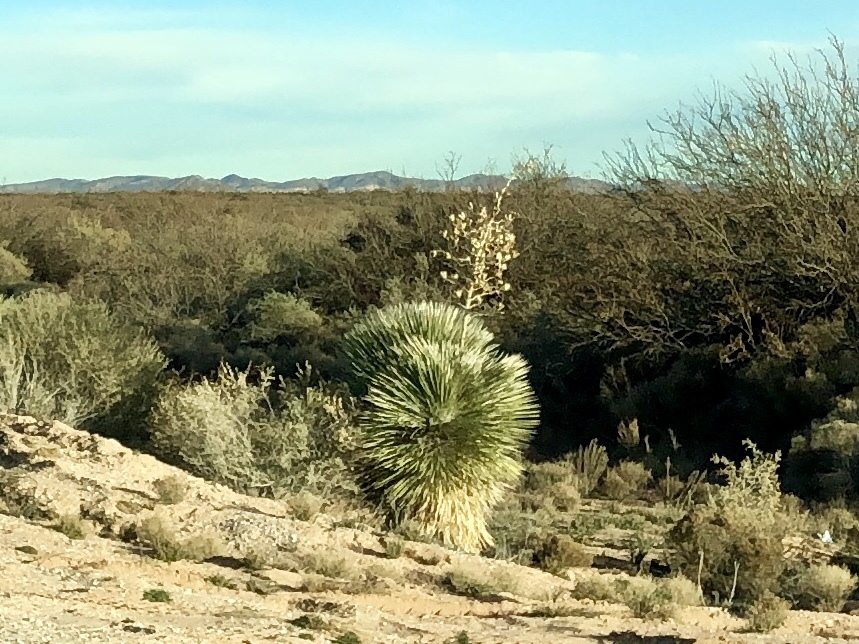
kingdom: Plantae
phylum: Tracheophyta
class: Liliopsida
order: Asparagales
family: Asparagaceae
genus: Yucca
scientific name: Yucca elata
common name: Palmella
